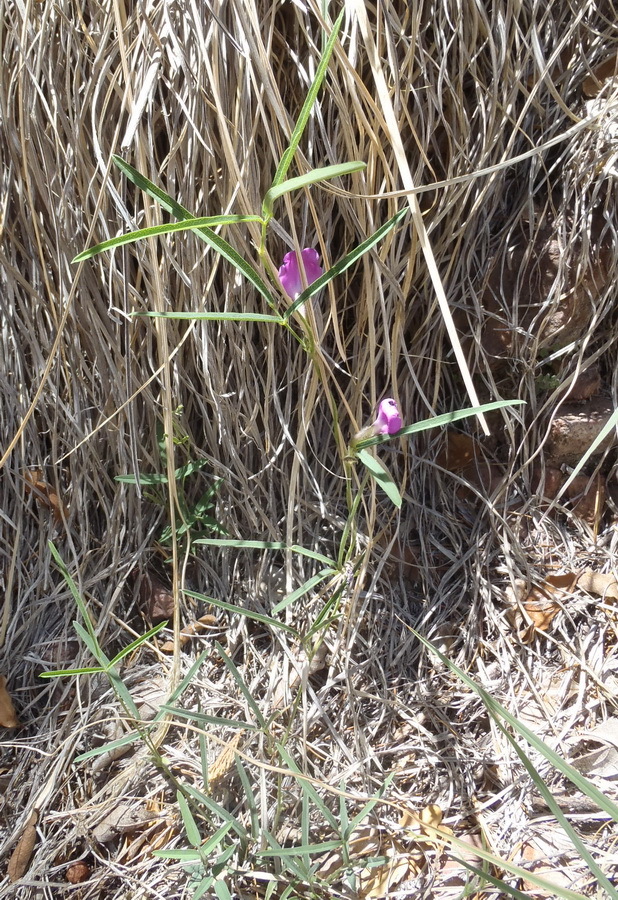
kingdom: Plantae
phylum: Tracheophyta
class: Magnoliopsida
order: Fabales
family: Fabaceae
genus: Cologania
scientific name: Cologania angustifolia
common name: Longleaf cologania
